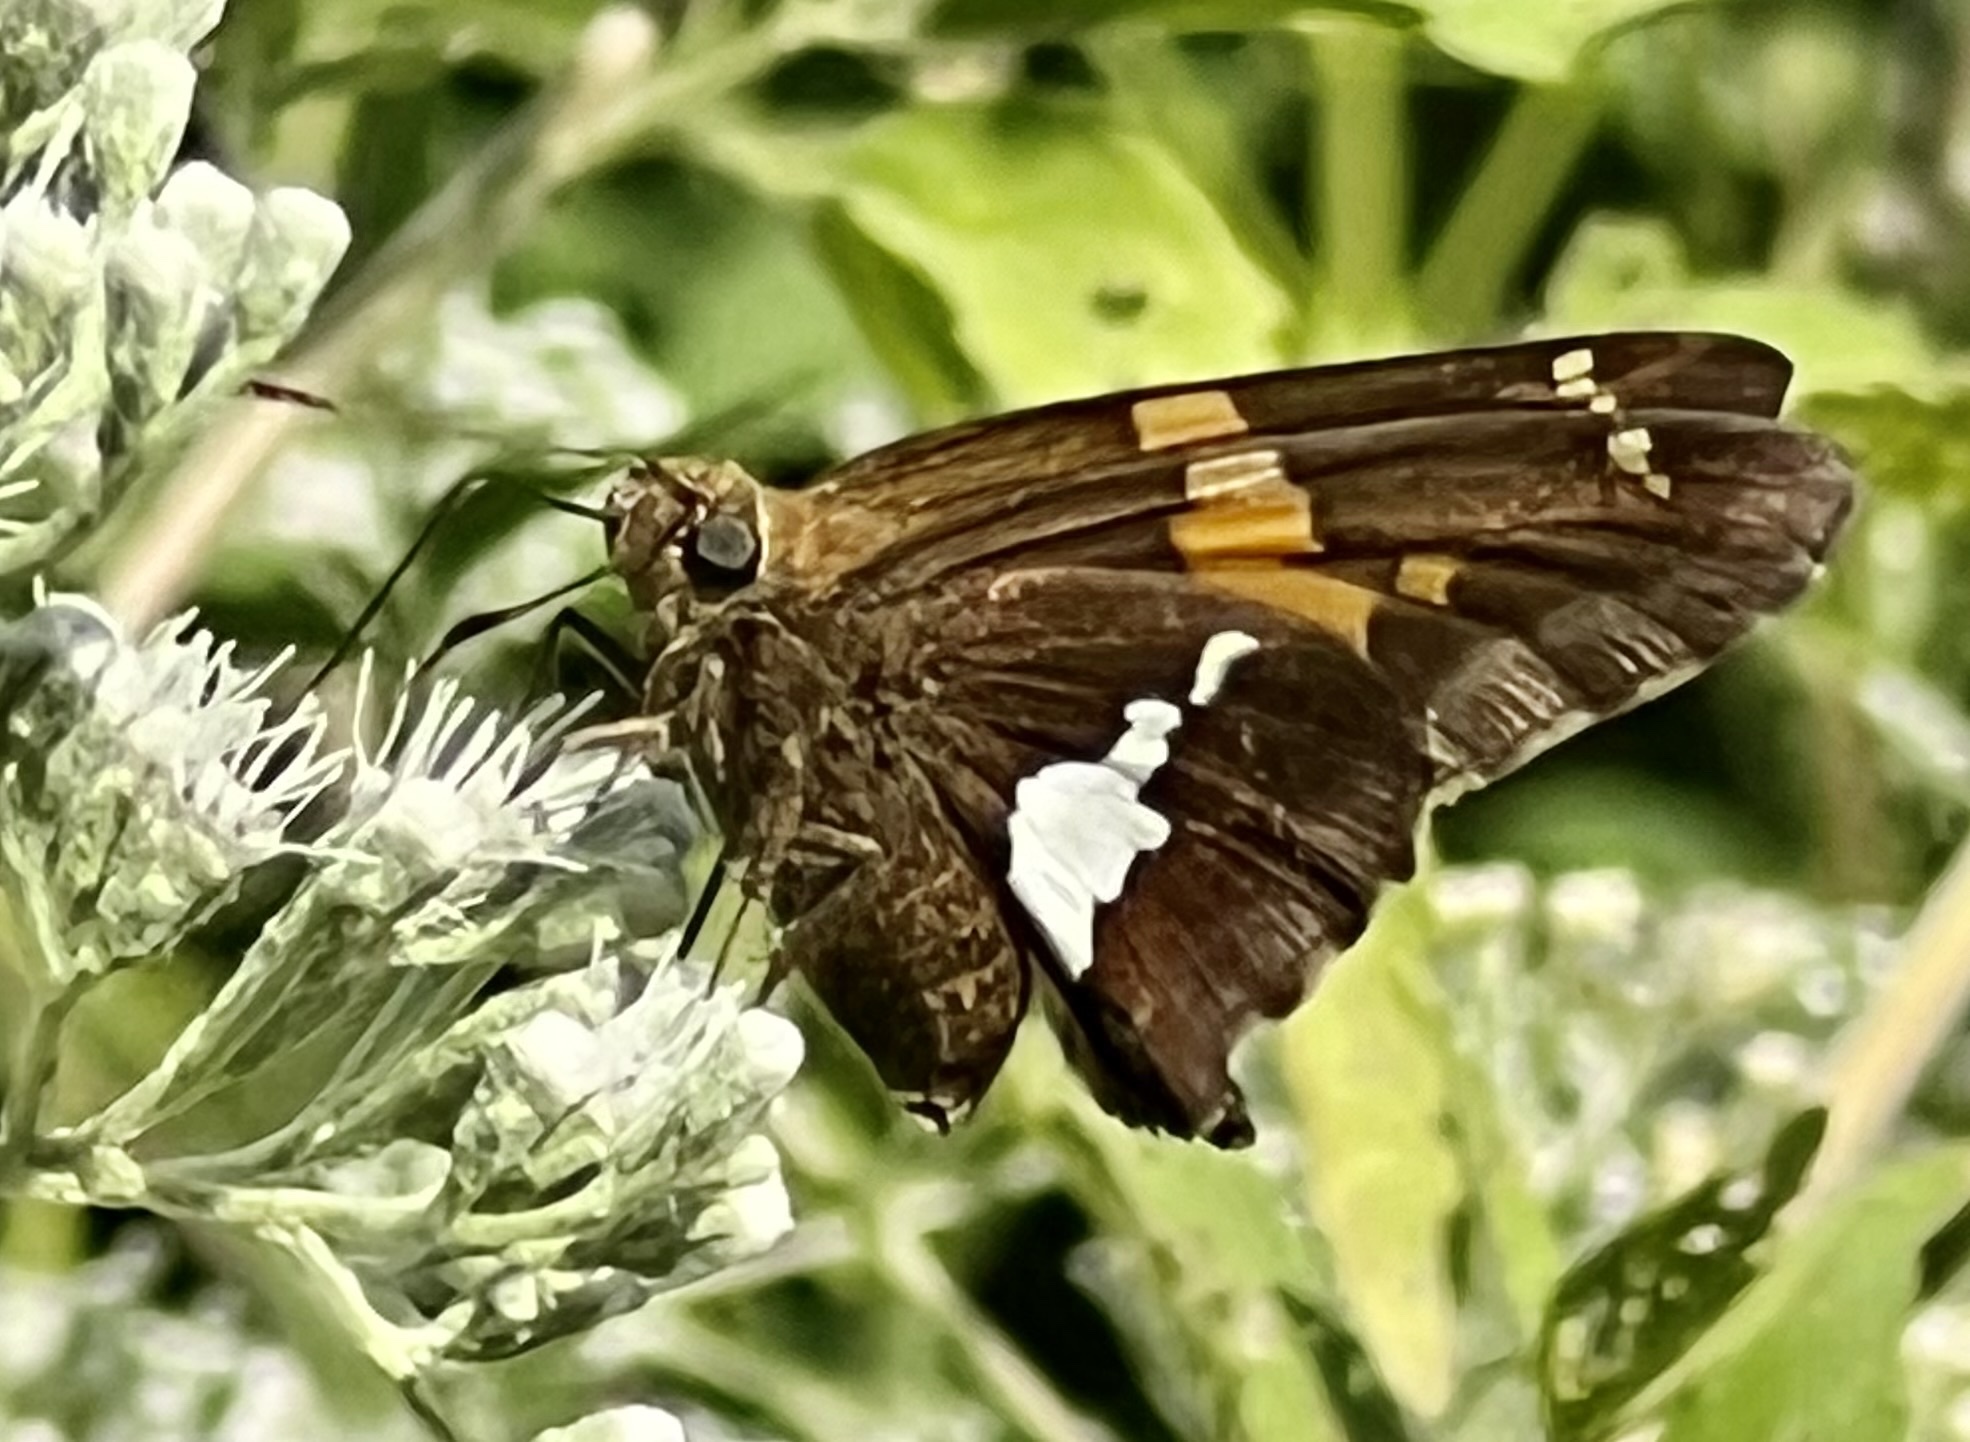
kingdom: Animalia
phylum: Arthropoda
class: Insecta
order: Lepidoptera
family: Hesperiidae
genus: Epargyreus
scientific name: Epargyreus clarus
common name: Silver-spotted skipper
